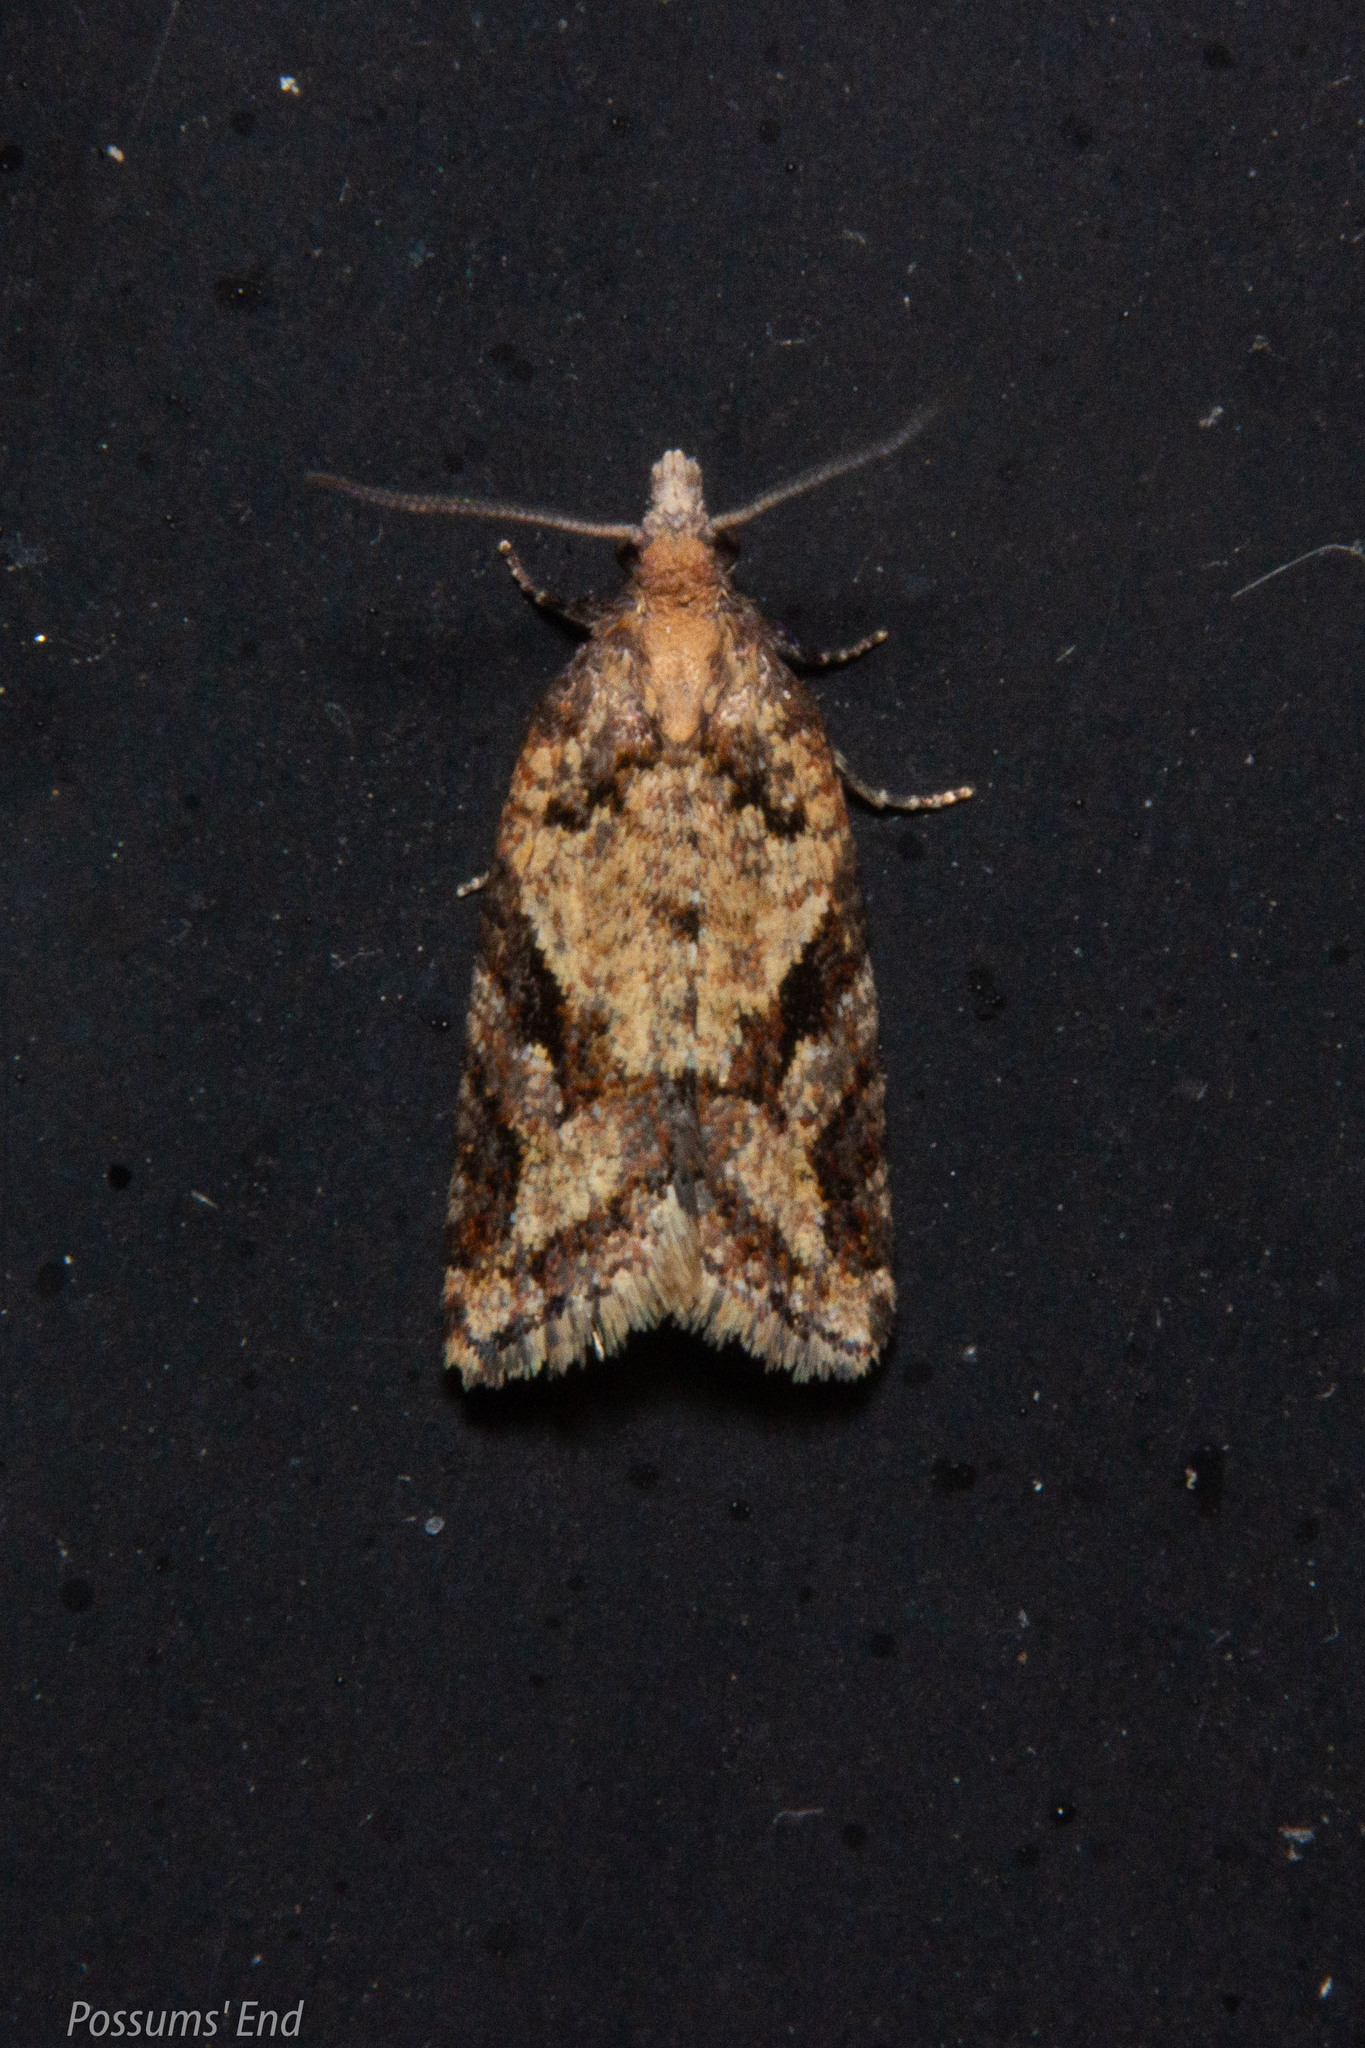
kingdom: Animalia
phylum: Arthropoda
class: Insecta
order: Lepidoptera
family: Tortricidae
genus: Capua
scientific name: Capua semiferana
